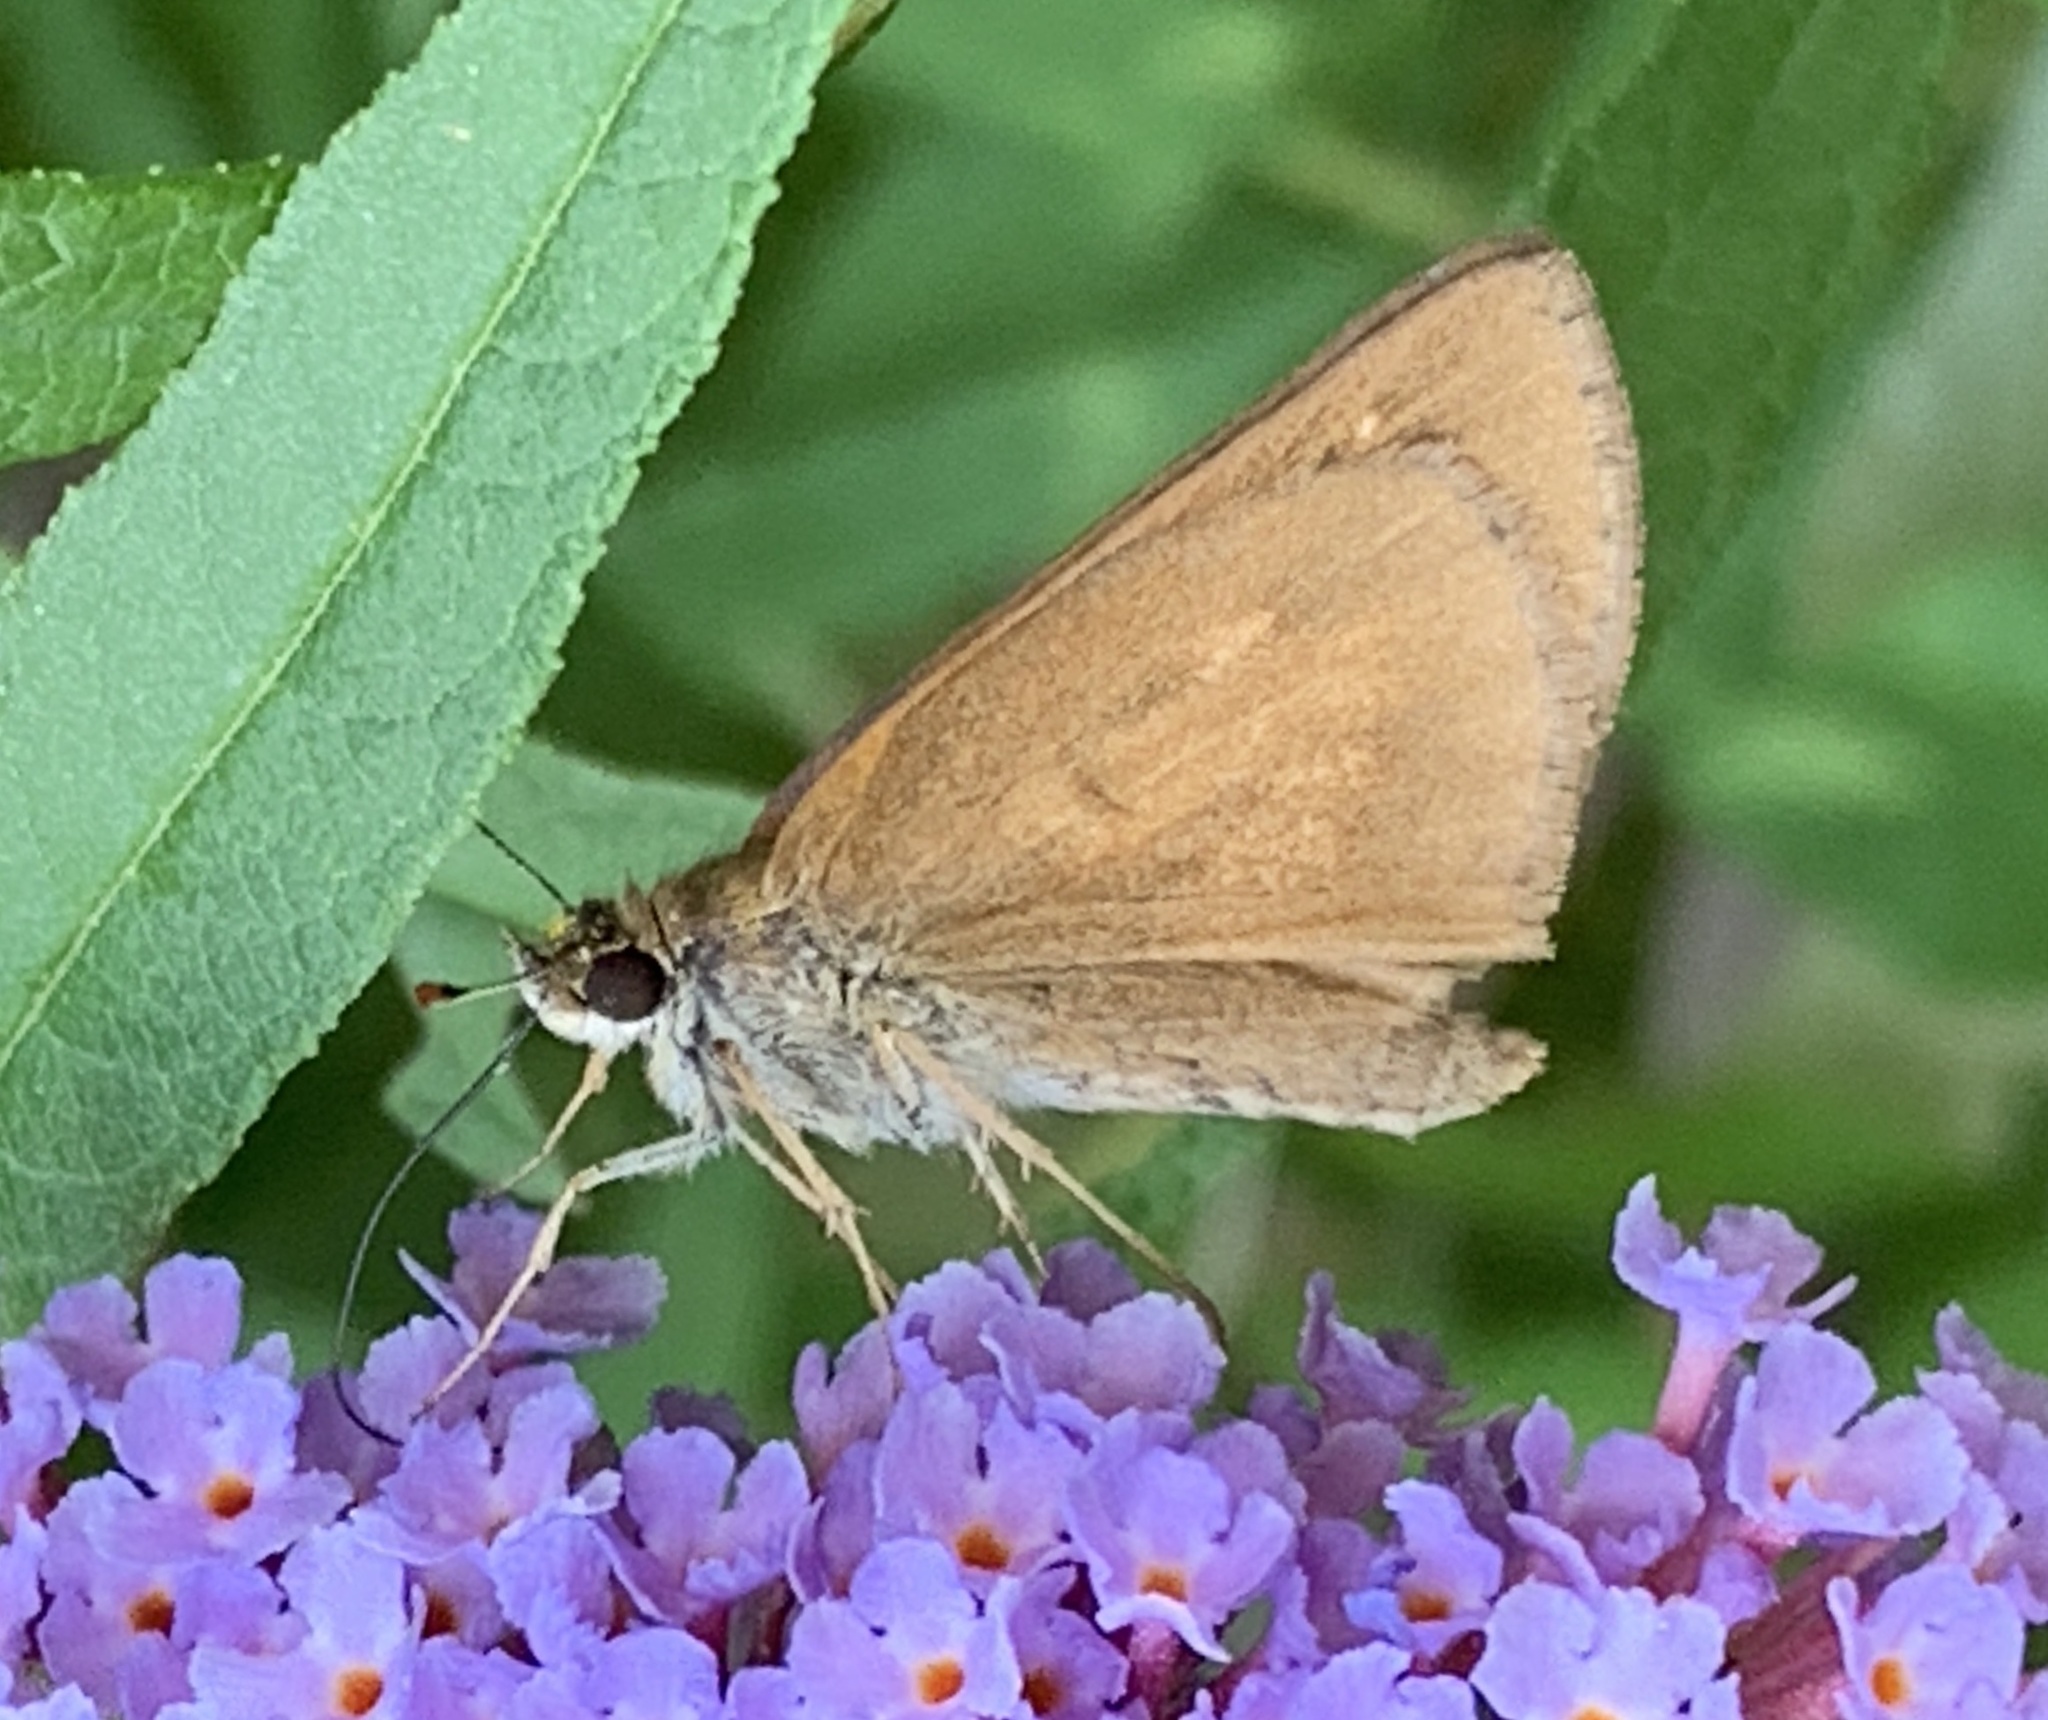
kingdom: Animalia
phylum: Arthropoda
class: Insecta
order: Lepidoptera
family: Hesperiidae
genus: Poanes
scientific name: Poanes viator
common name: Broad-winged skipper
